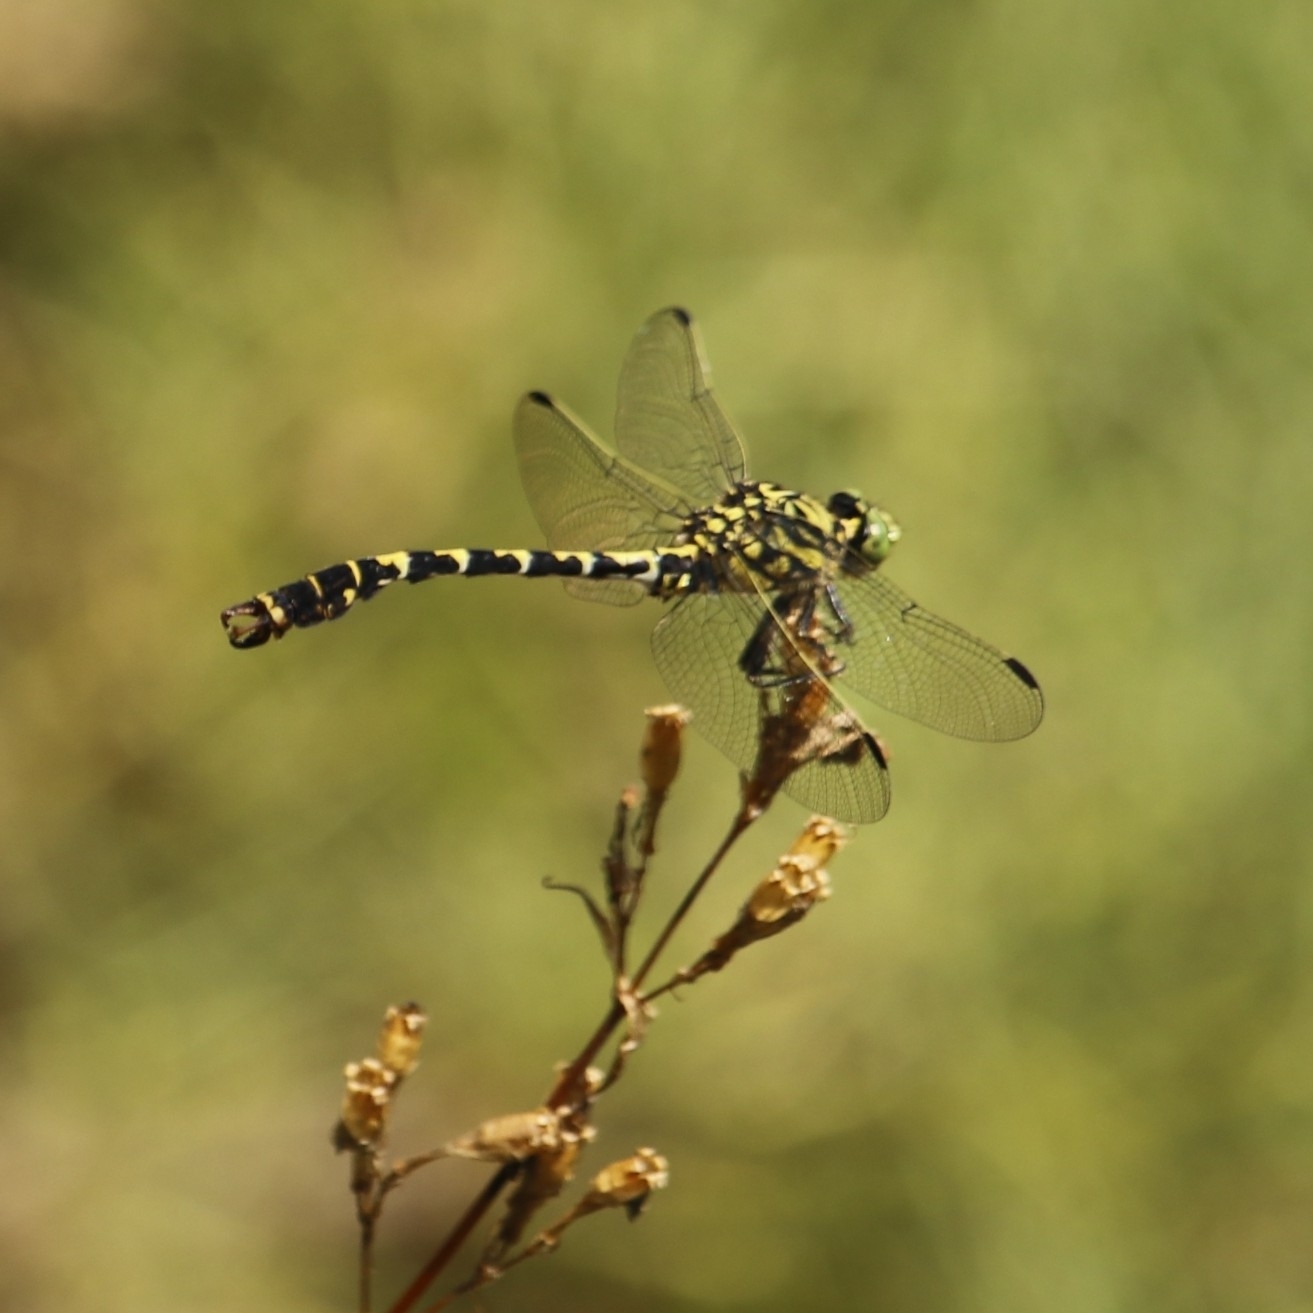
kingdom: Animalia
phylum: Arthropoda
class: Insecta
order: Odonata
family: Gomphidae
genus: Onychogomphus
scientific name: Onychogomphus forcipatus
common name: Small pincertail
